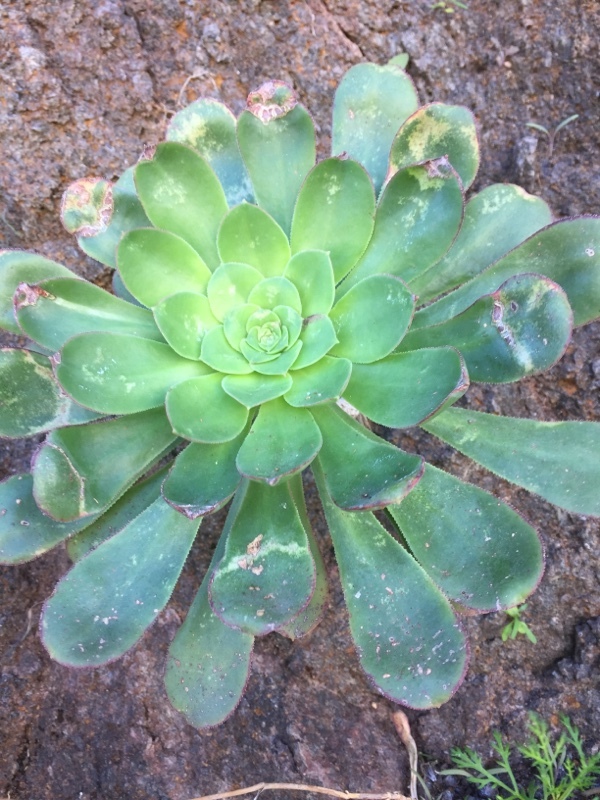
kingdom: Plantae
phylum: Tracheophyta
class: Magnoliopsida
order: Saxifragales
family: Crassulaceae
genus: Aeonium
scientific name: Aeonium lindleyi
